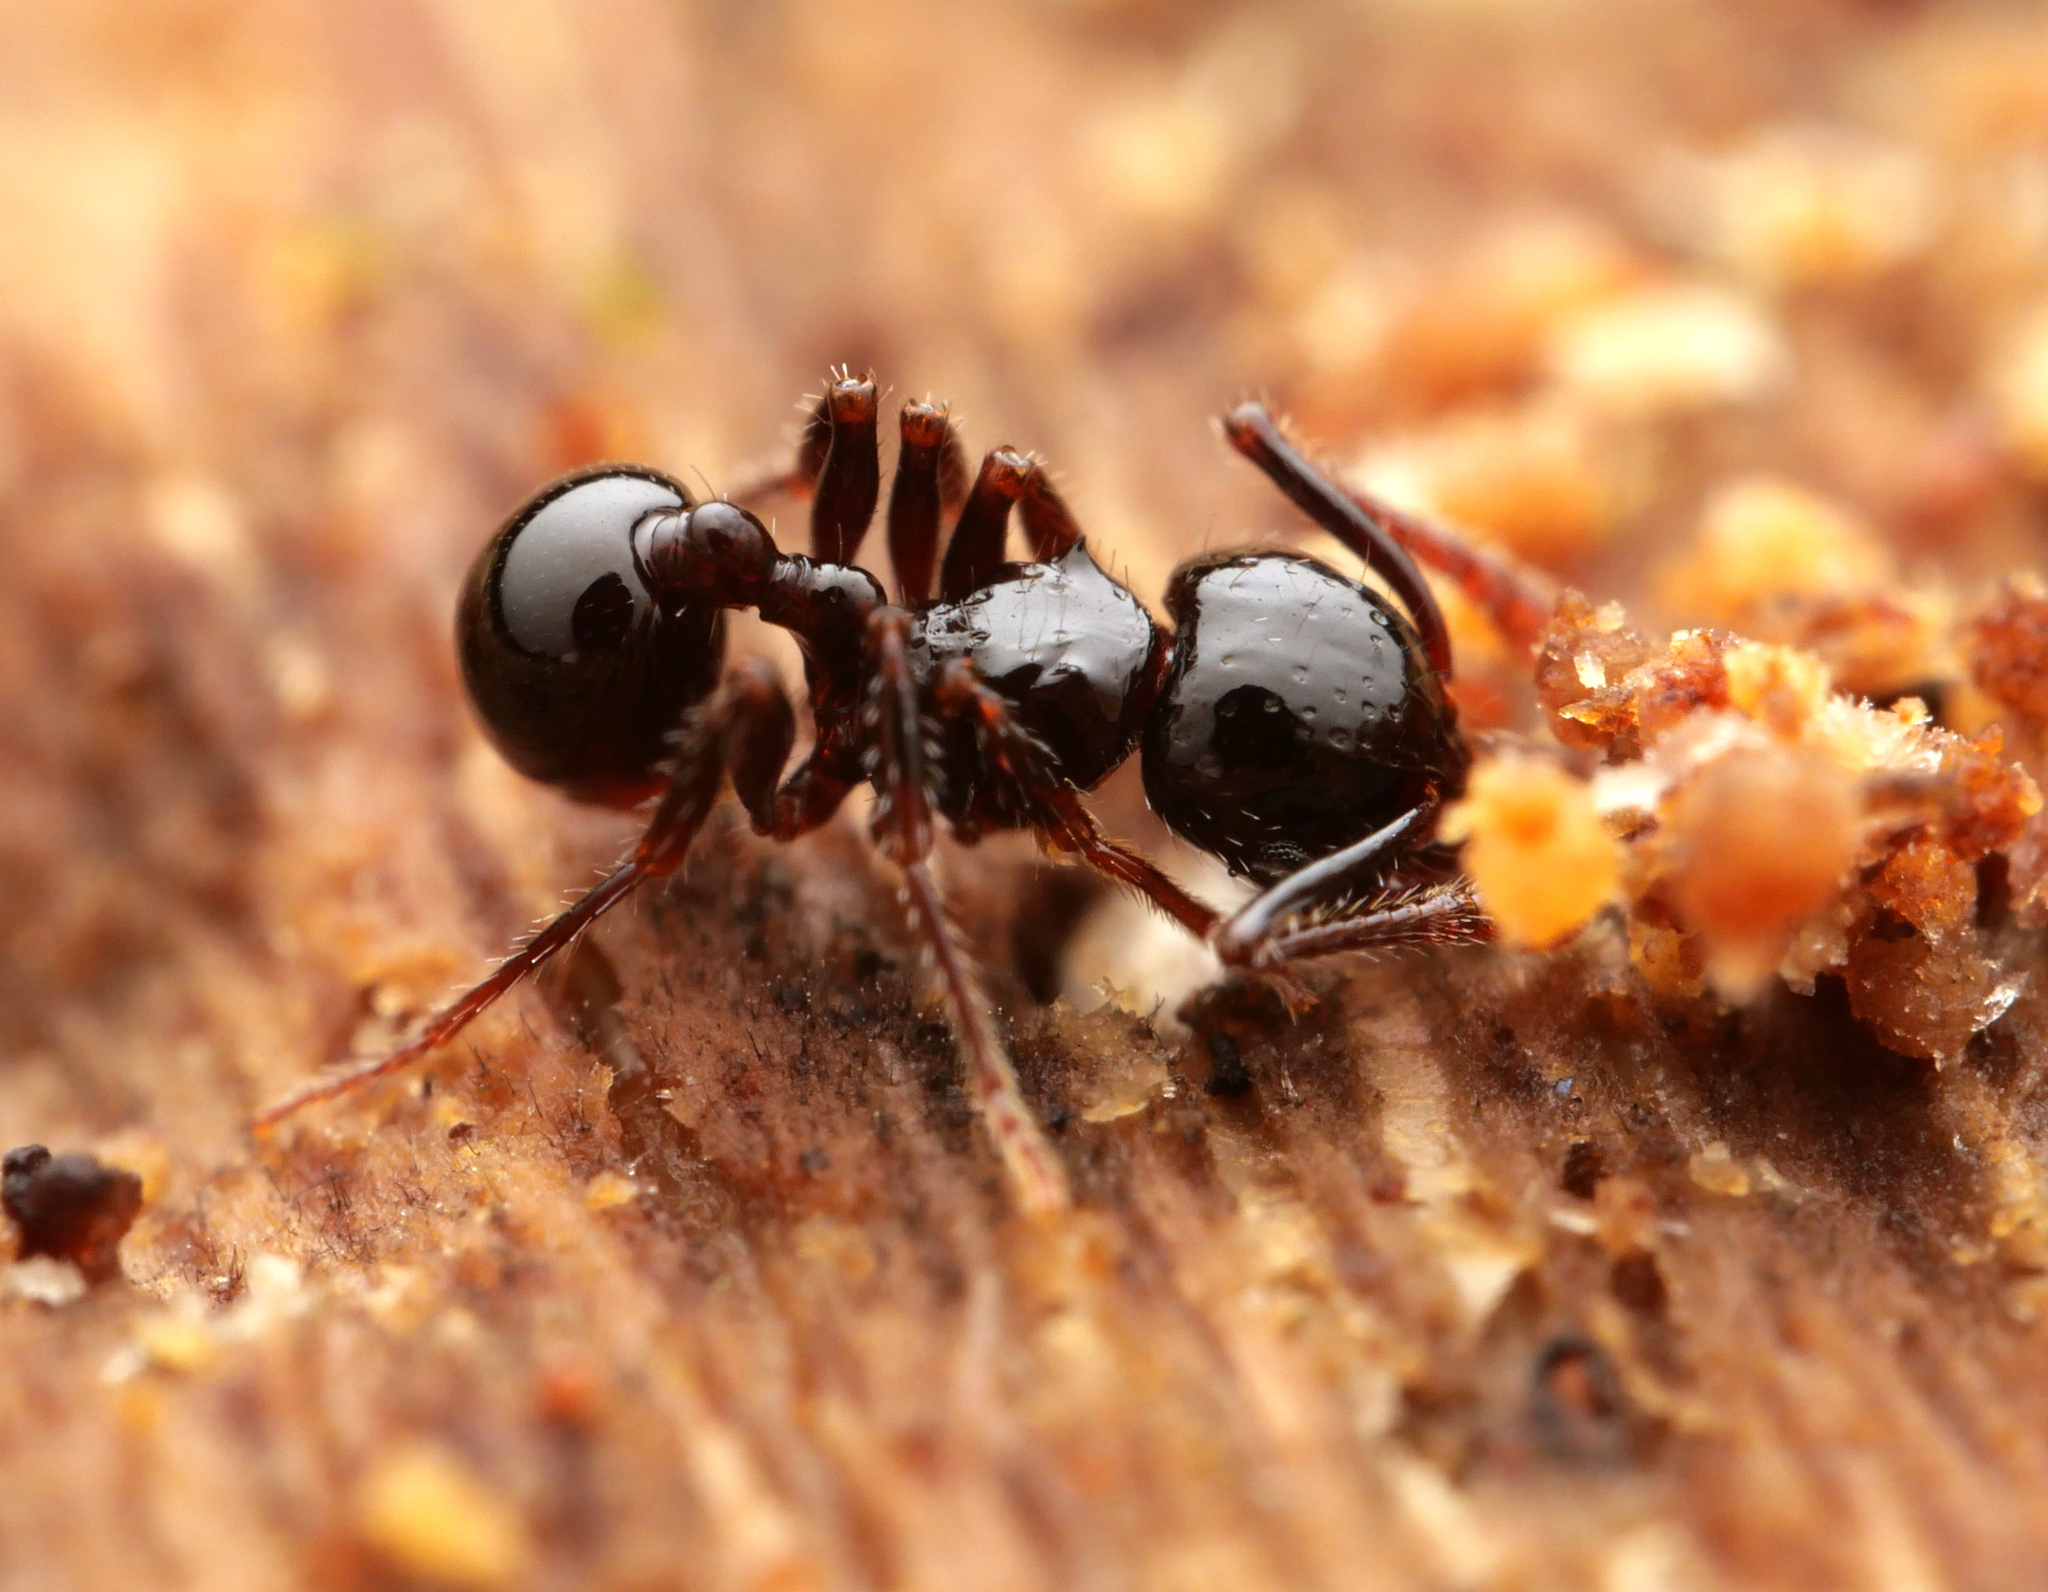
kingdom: Animalia
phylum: Arthropoda
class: Insecta
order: Hymenoptera
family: Formicidae
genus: Pristomyrmex
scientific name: Pristomyrmex quadridens
